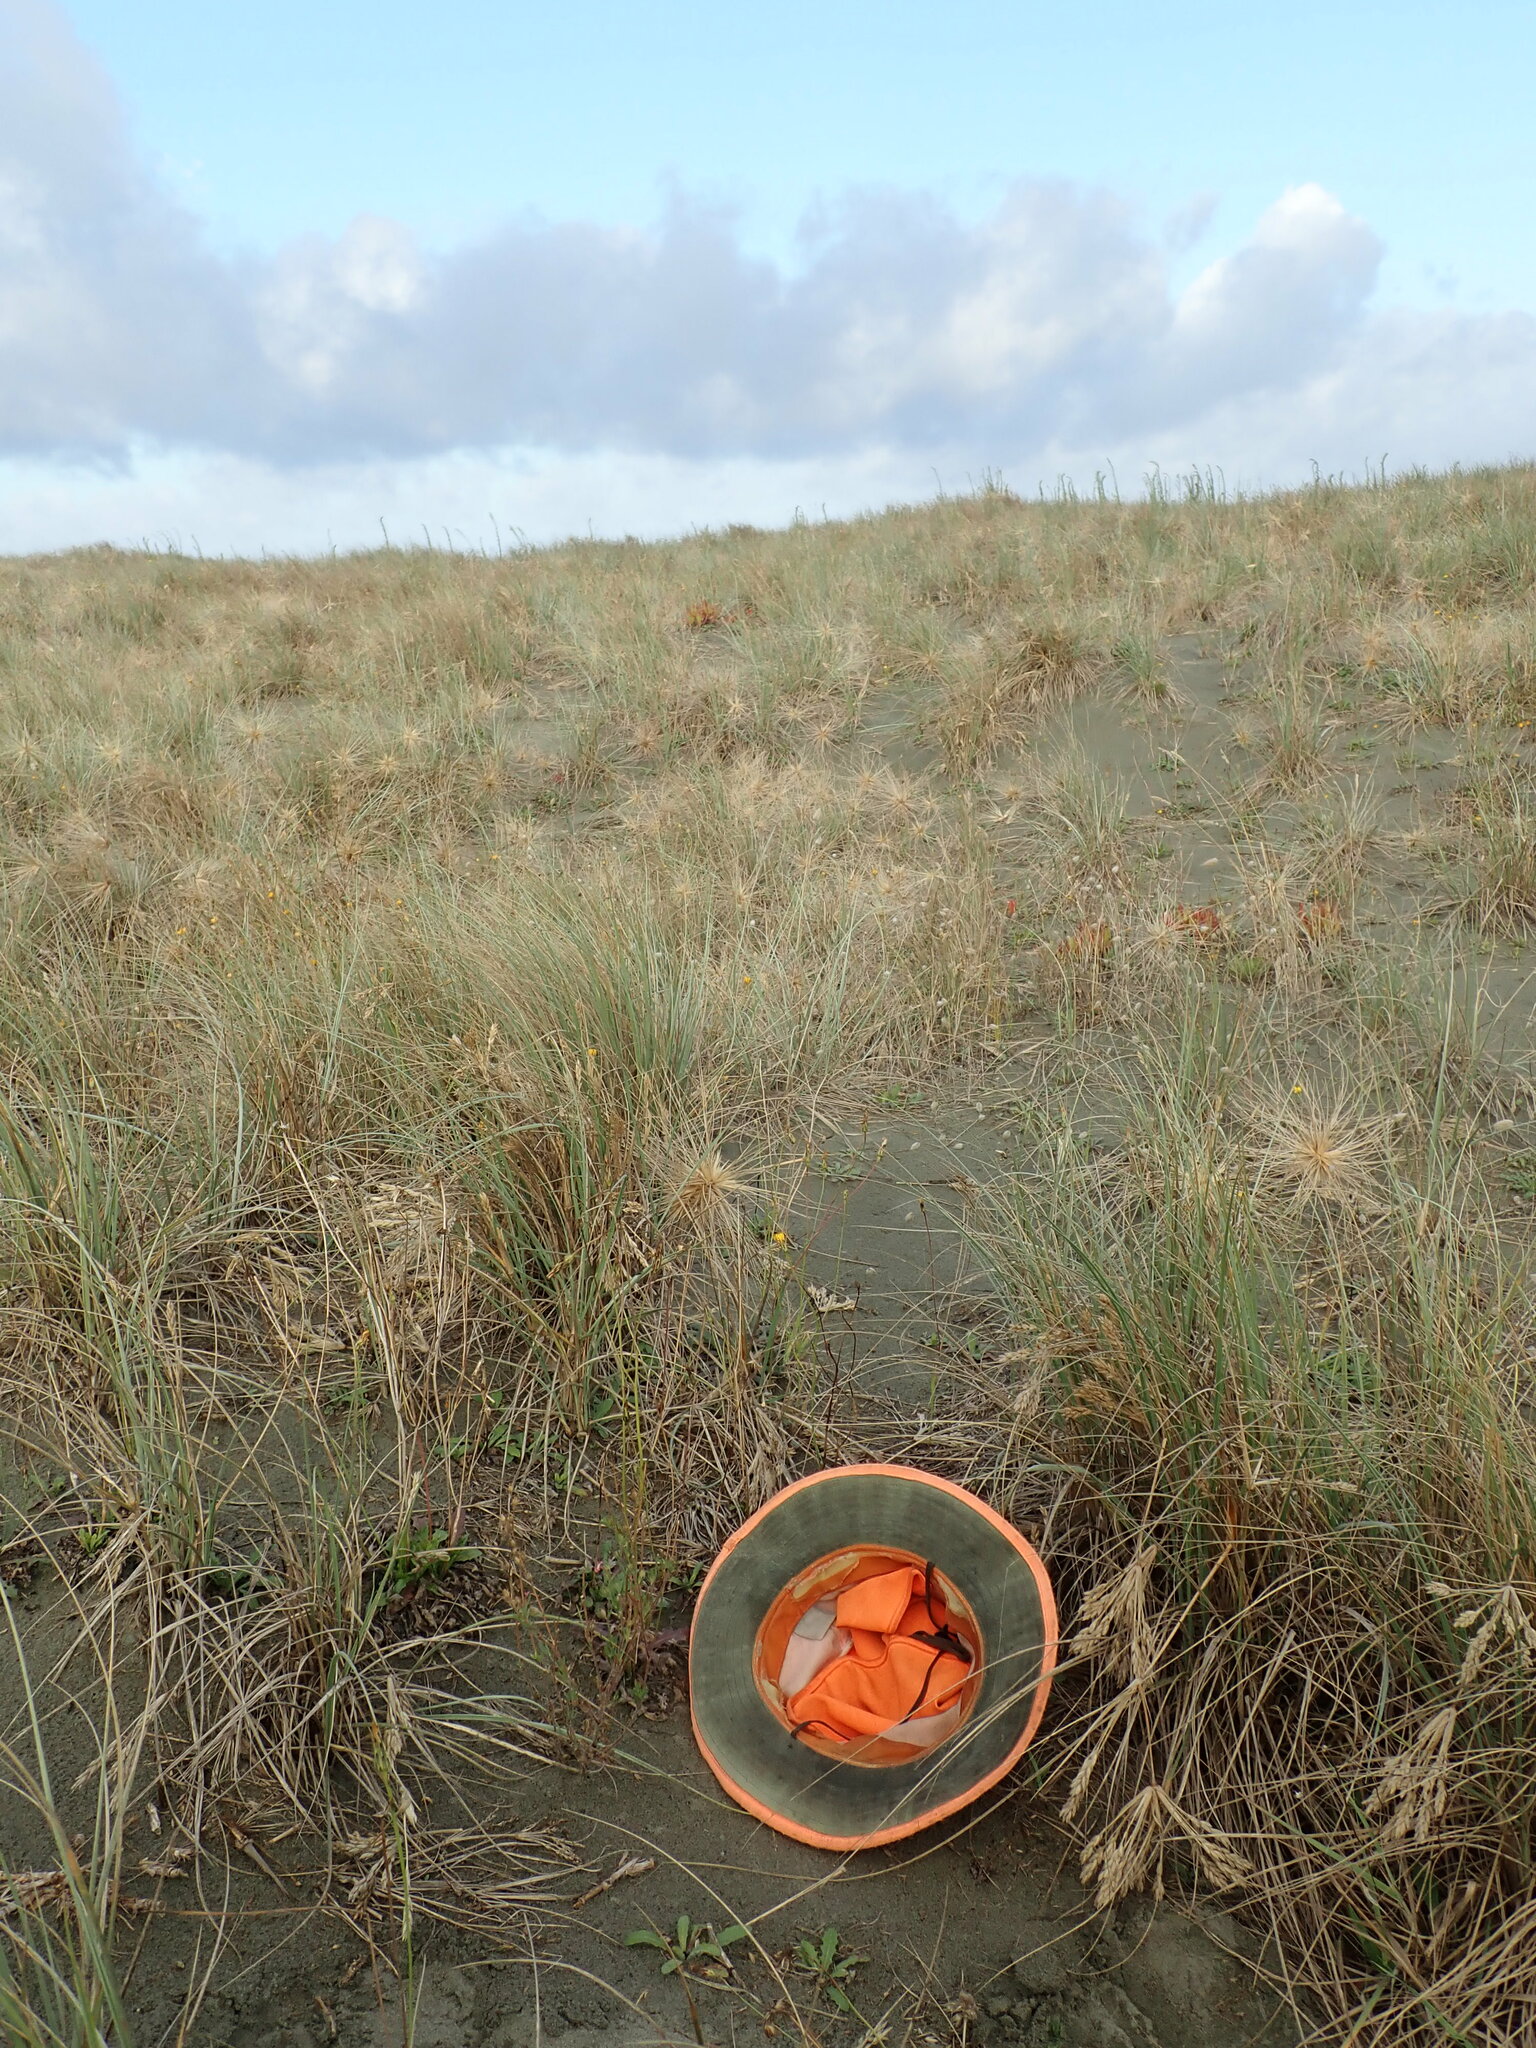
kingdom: Plantae
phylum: Tracheophyta
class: Magnoliopsida
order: Caryophyllales
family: Caryophyllaceae
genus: Silene
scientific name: Silene gallica
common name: Small-flowered catchfly
